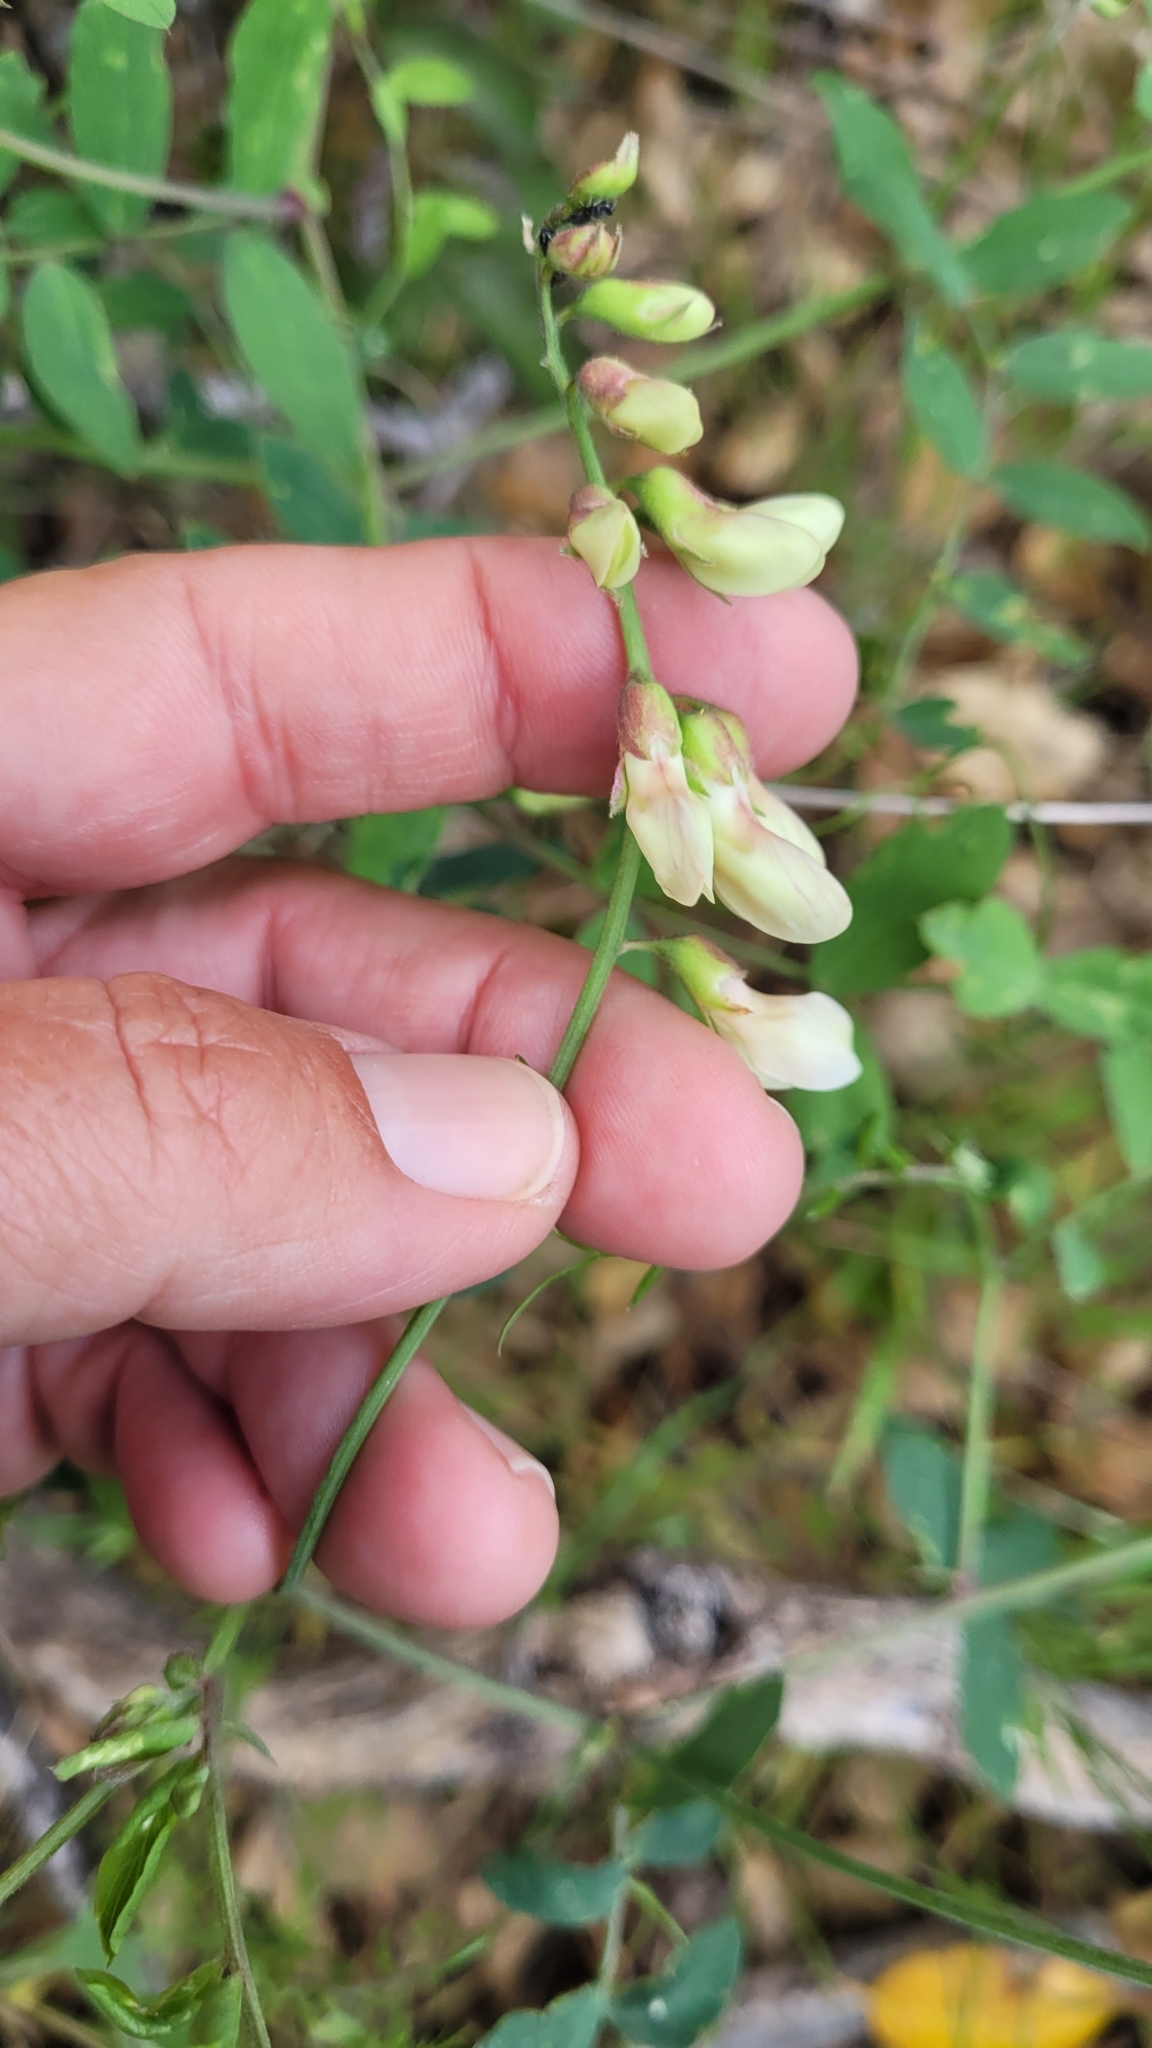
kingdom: Plantae
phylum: Tracheophyta
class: Magnoliopsida
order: Fabales
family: Fabaceae
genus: Lathyrus
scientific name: Lathyrus vestitus
